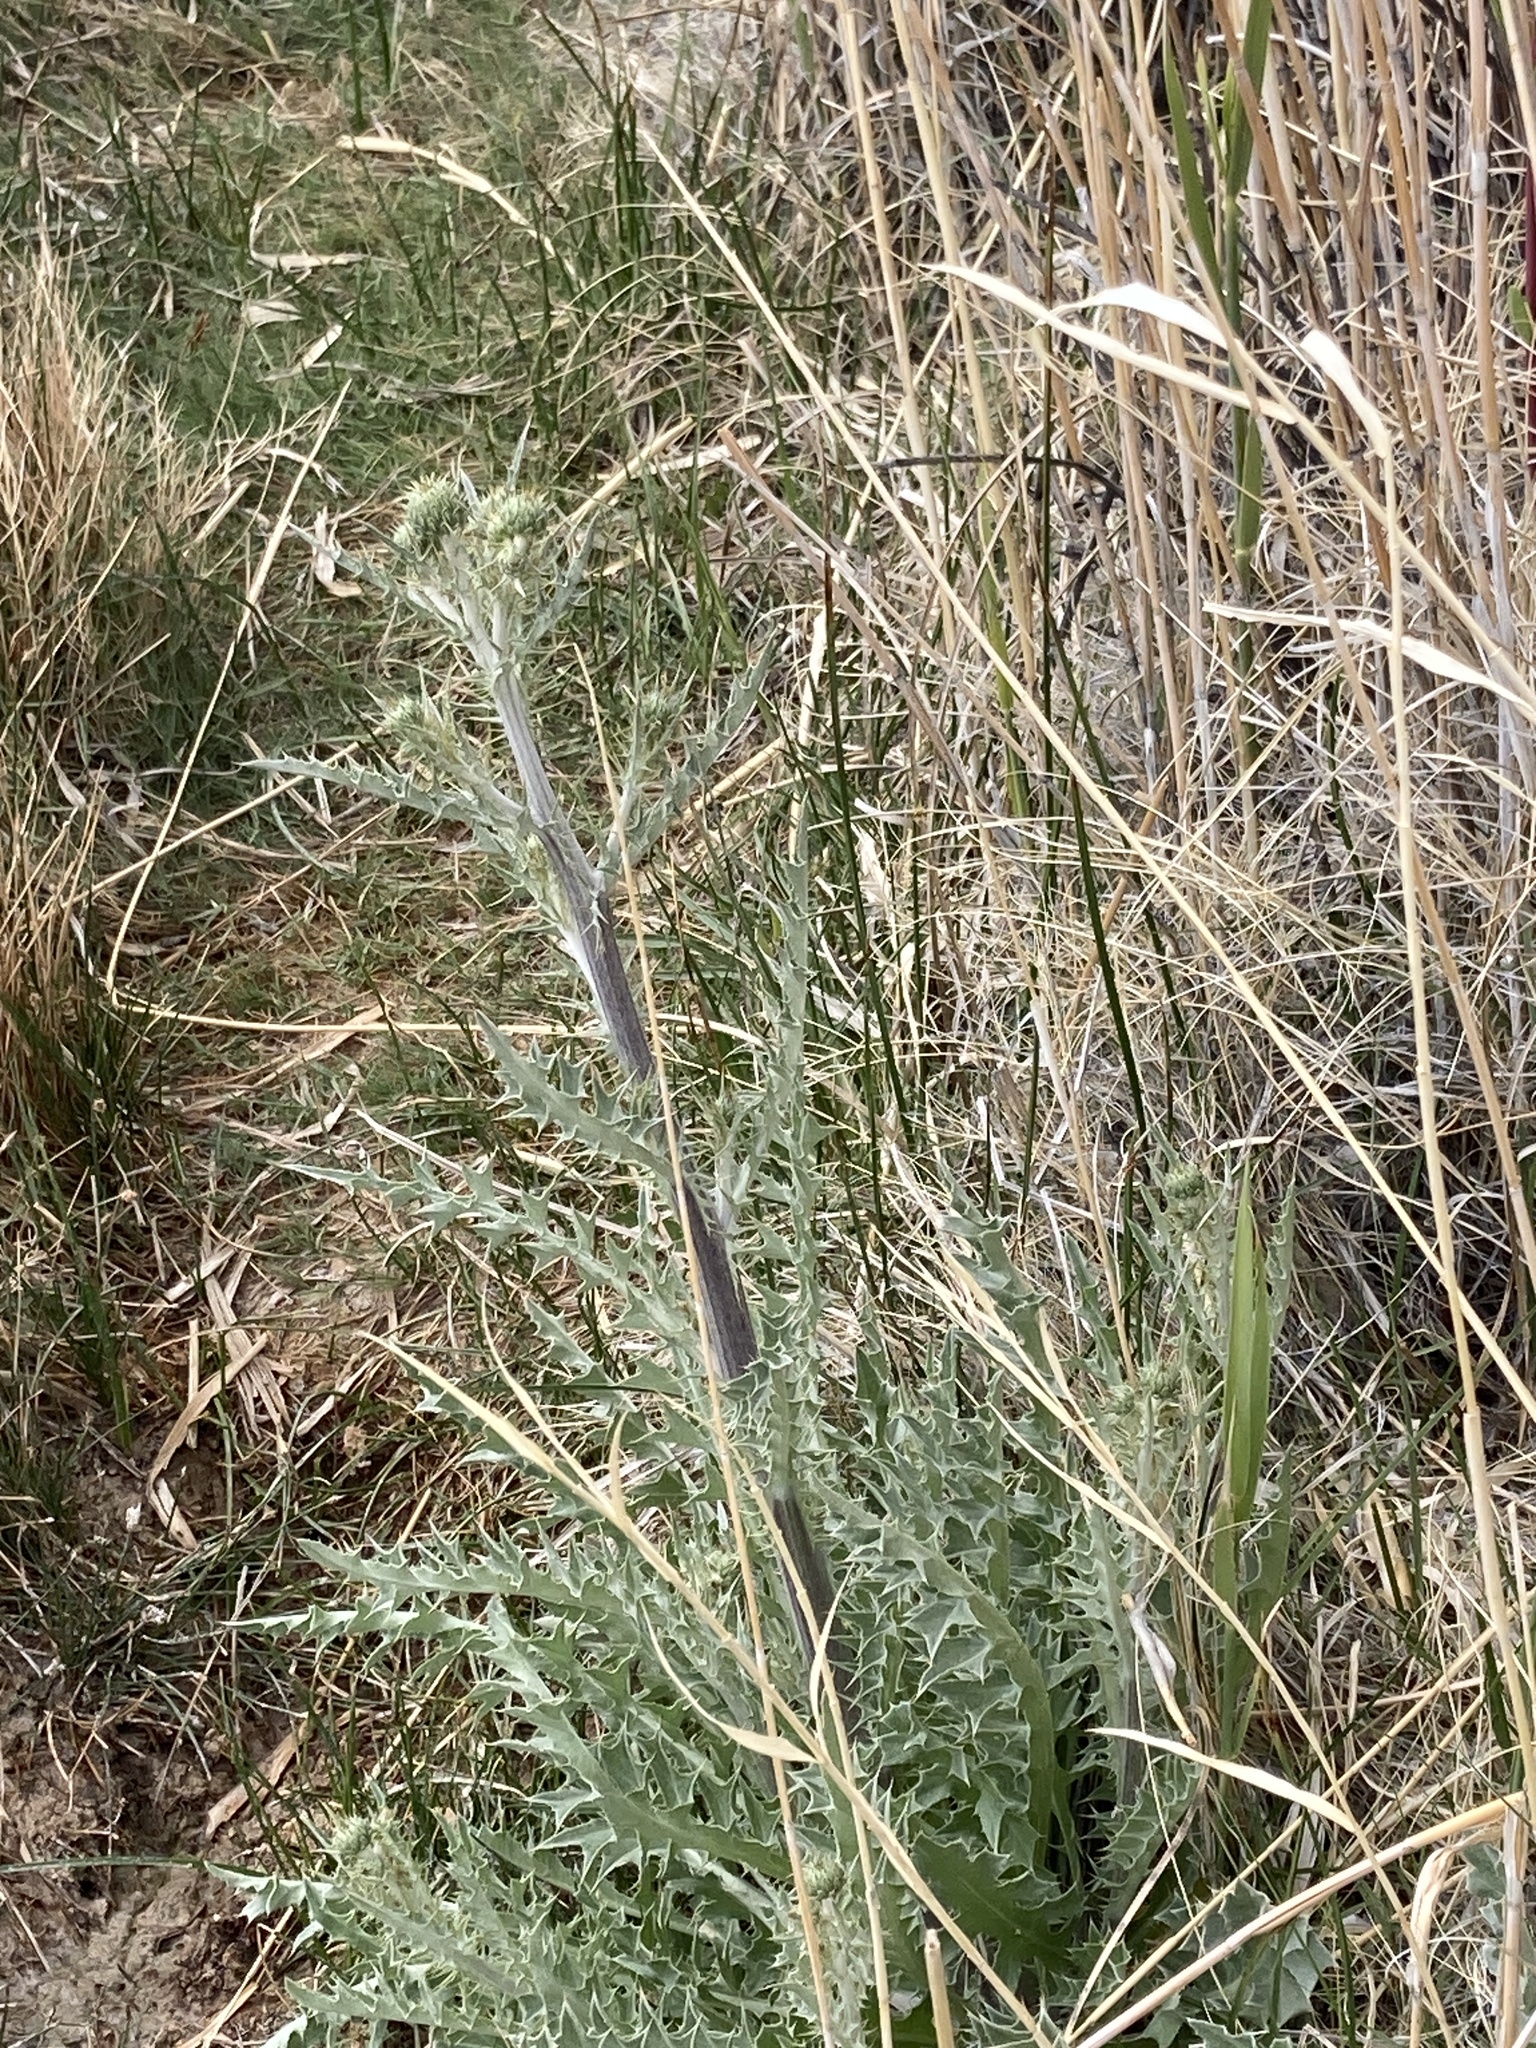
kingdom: Plantae
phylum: Tracheophyta
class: Magnoliopsida
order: Asterales
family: Asteraceae
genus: Cirsium
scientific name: Cirsium mohavense
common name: Mojave thistle
